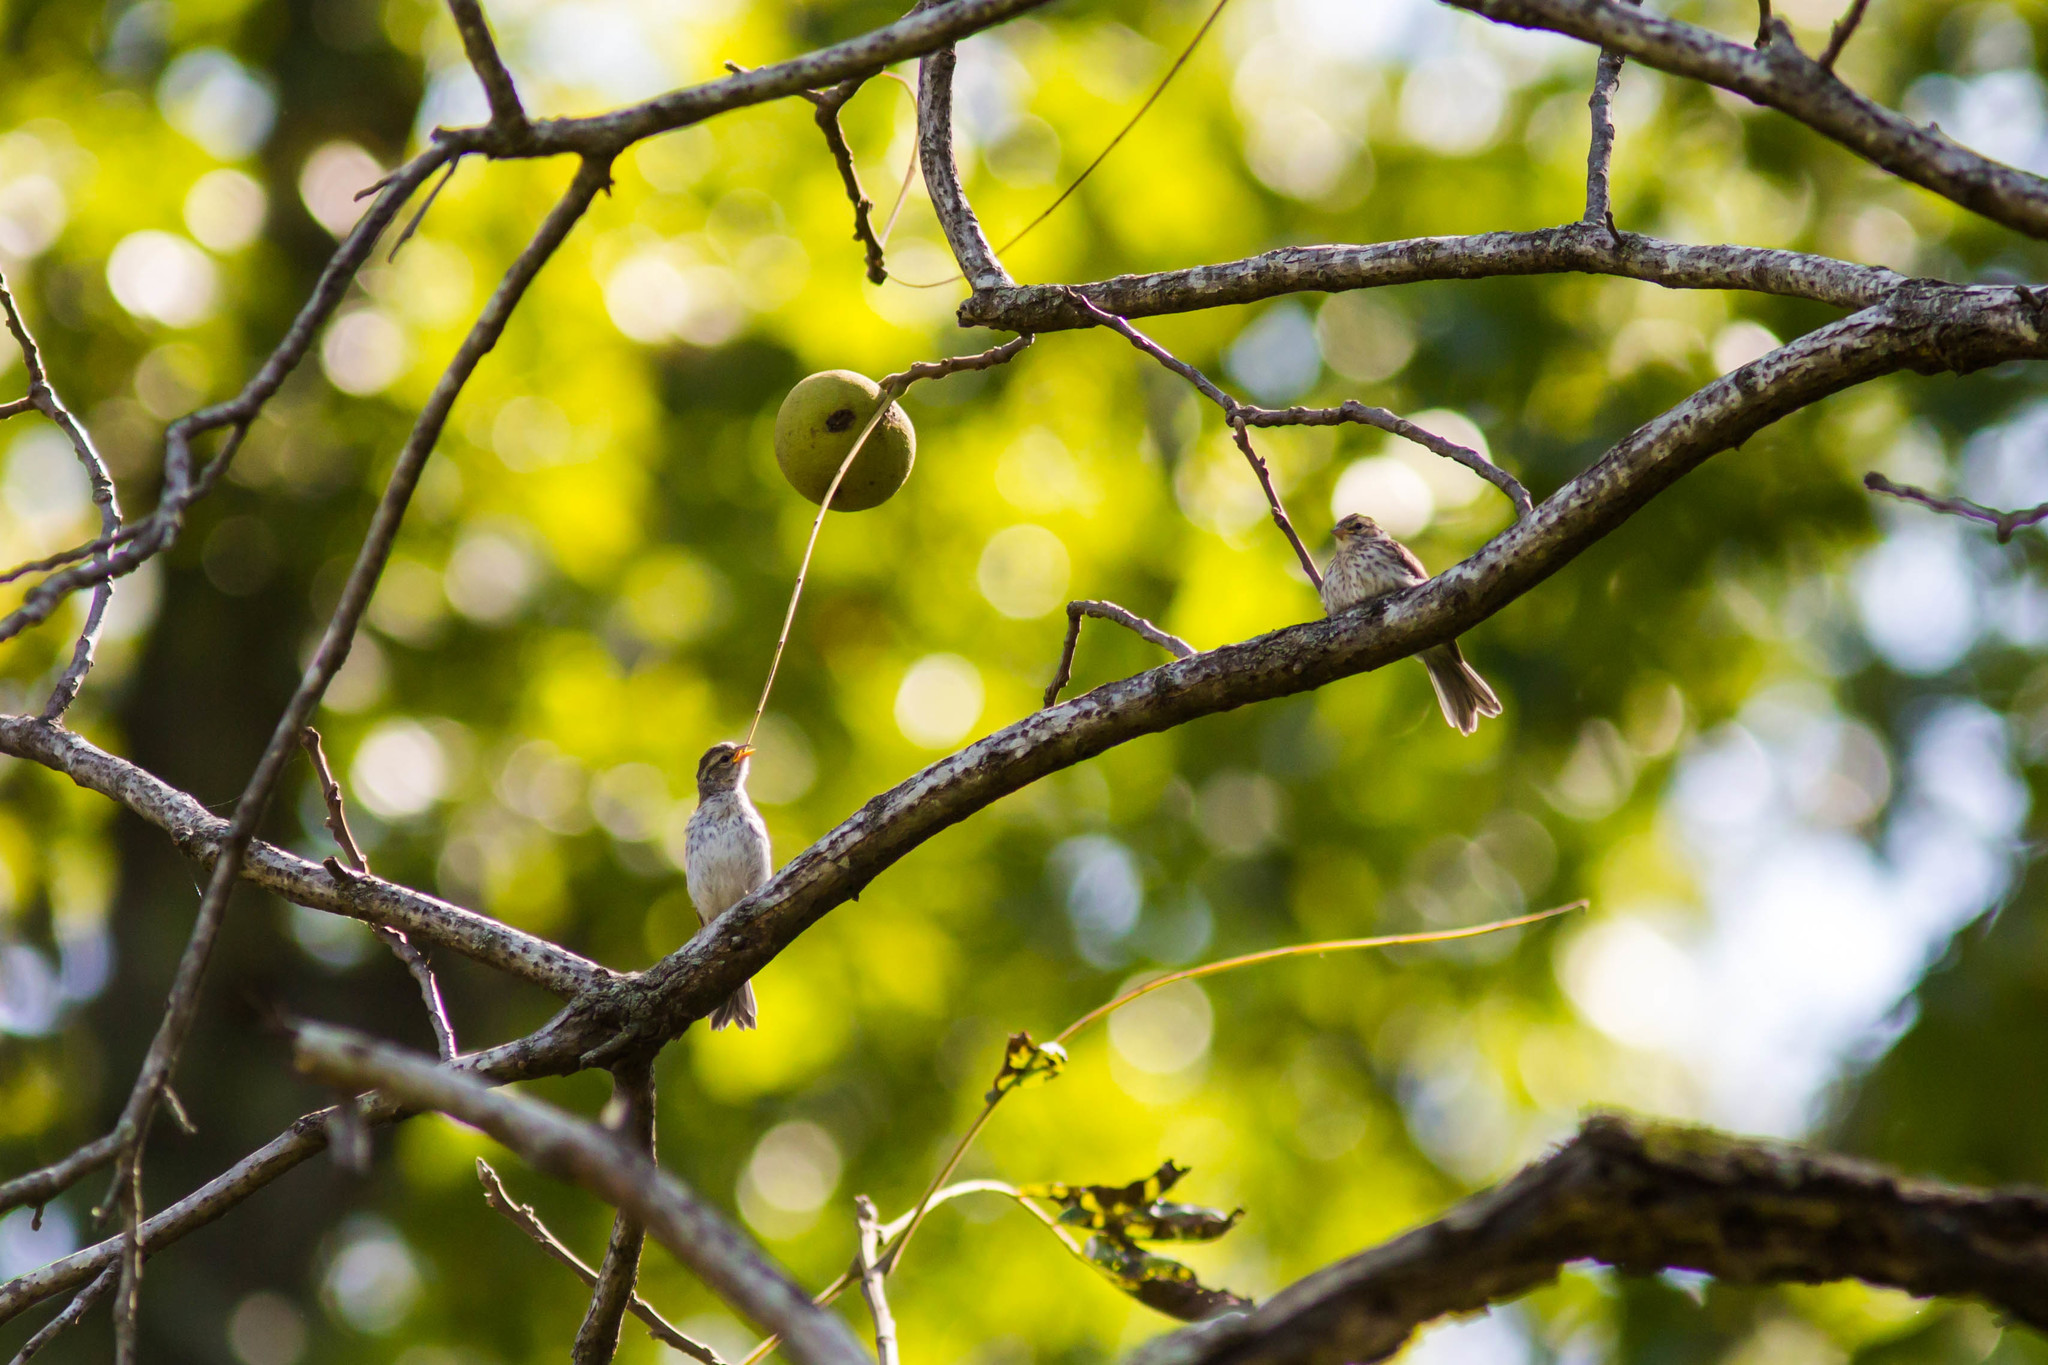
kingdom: Animalia
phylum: Chordata
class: Aves
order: Passeriformes
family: Passerellidae
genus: Spizella
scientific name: Spizella passerina
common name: Chipping sparrow
